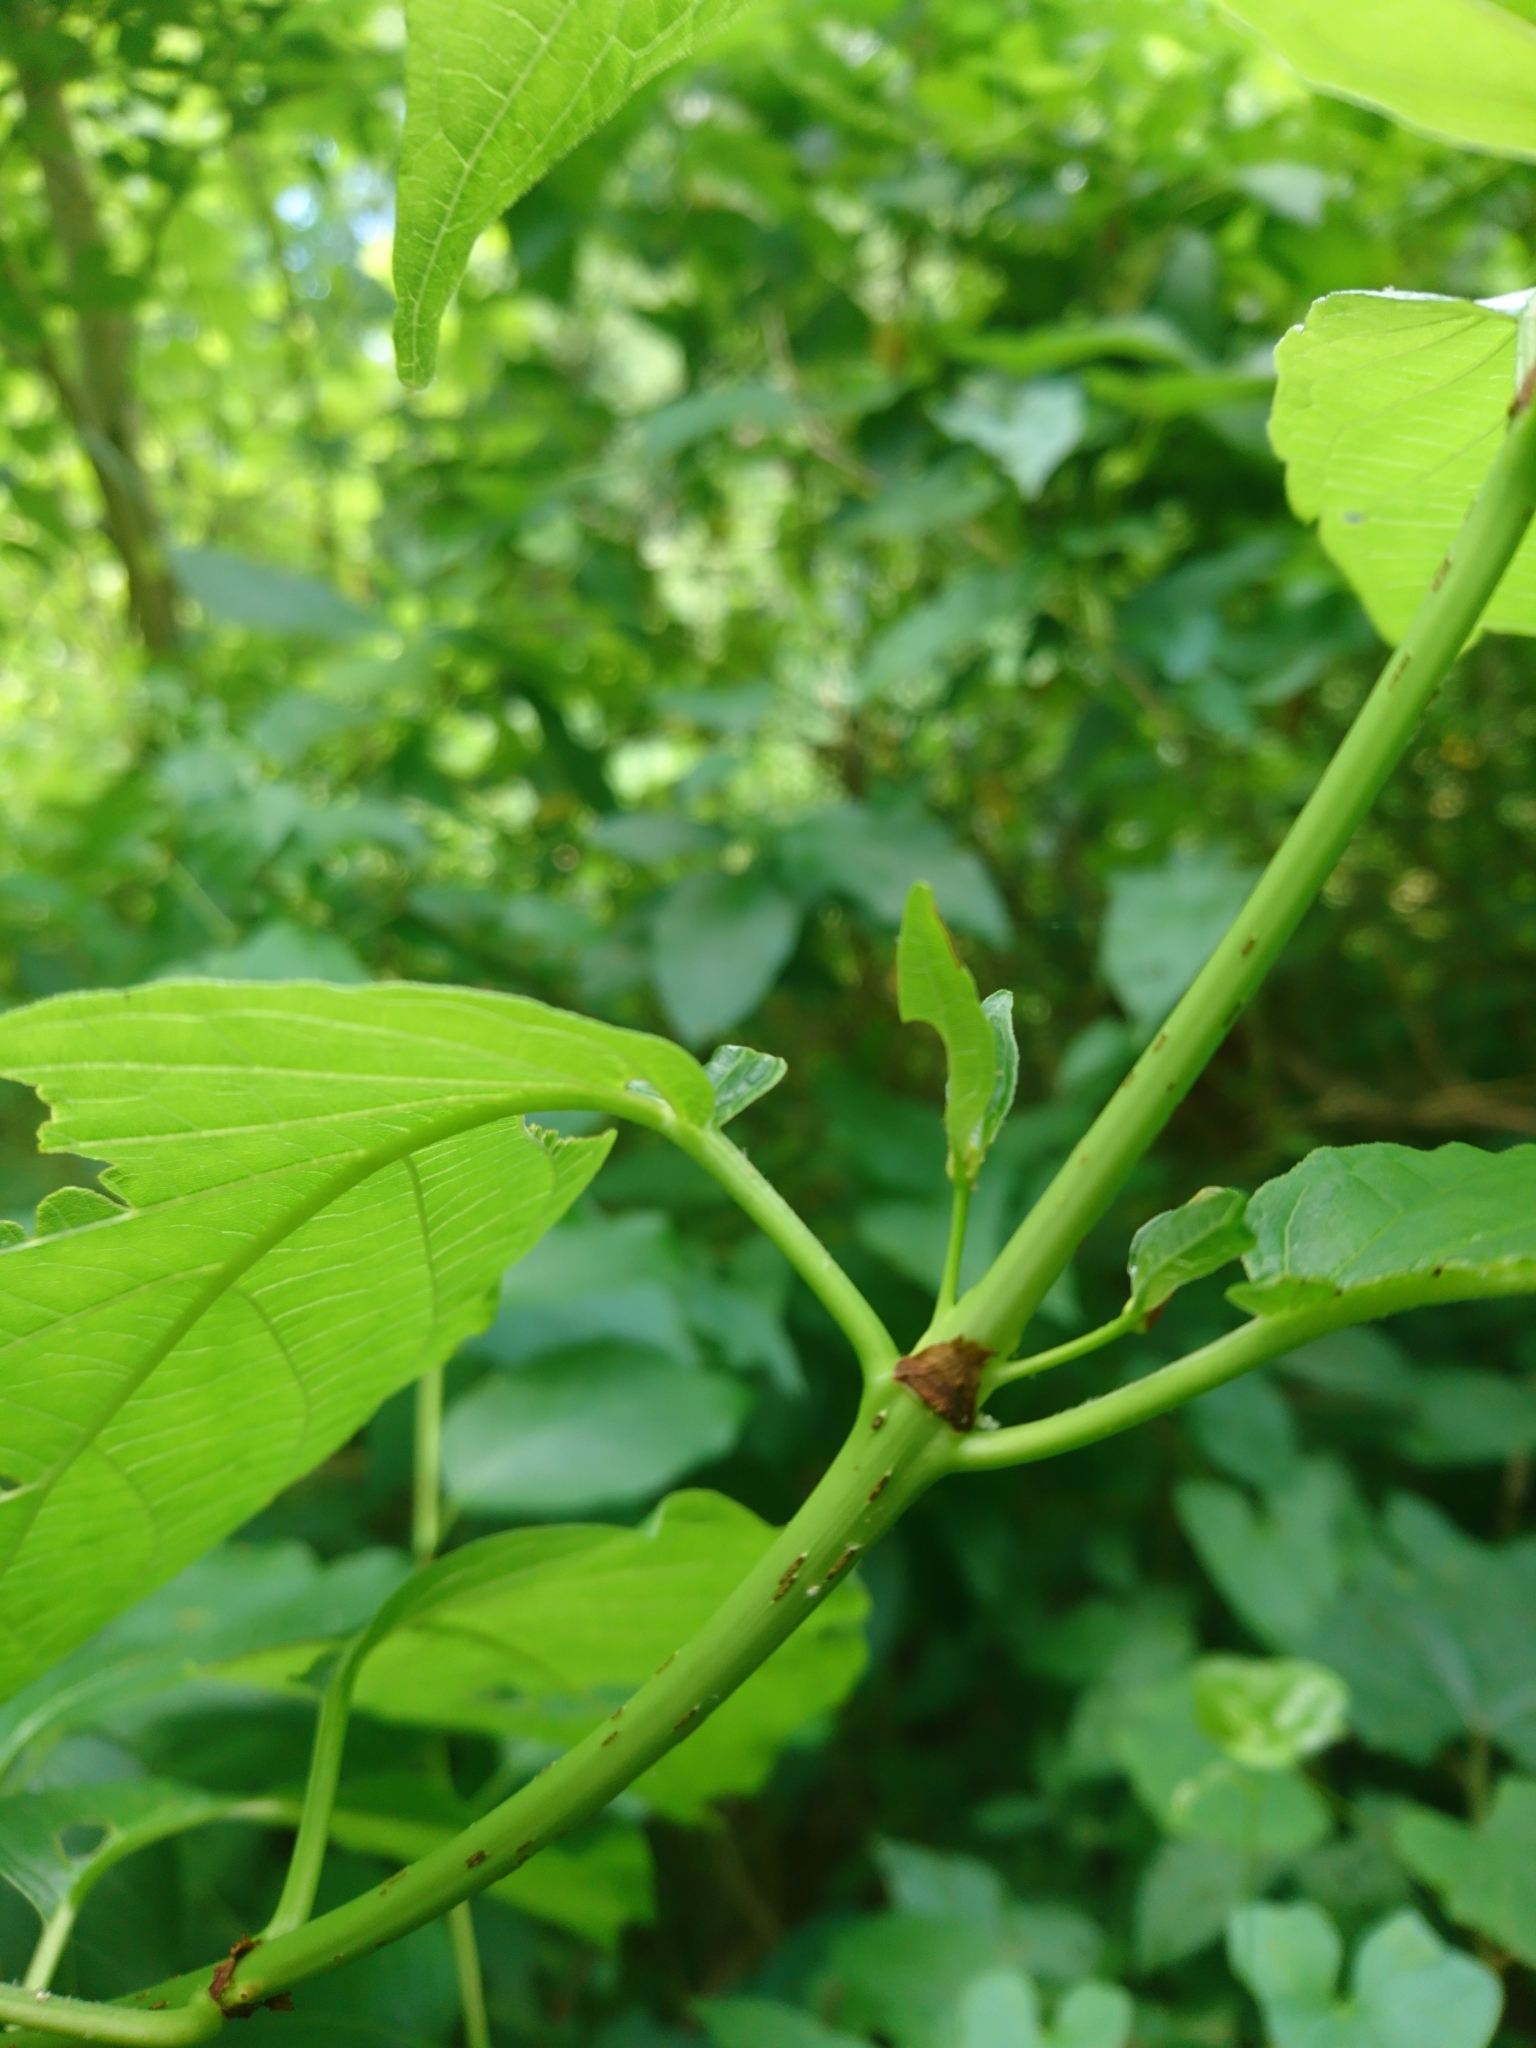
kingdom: Plantae
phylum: Tracheophyta
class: Magnoliopsida
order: Gentianales
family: Rubiaceae
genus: Cephalanthus
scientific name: Cephalanthus occidentalis
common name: Button-willow
